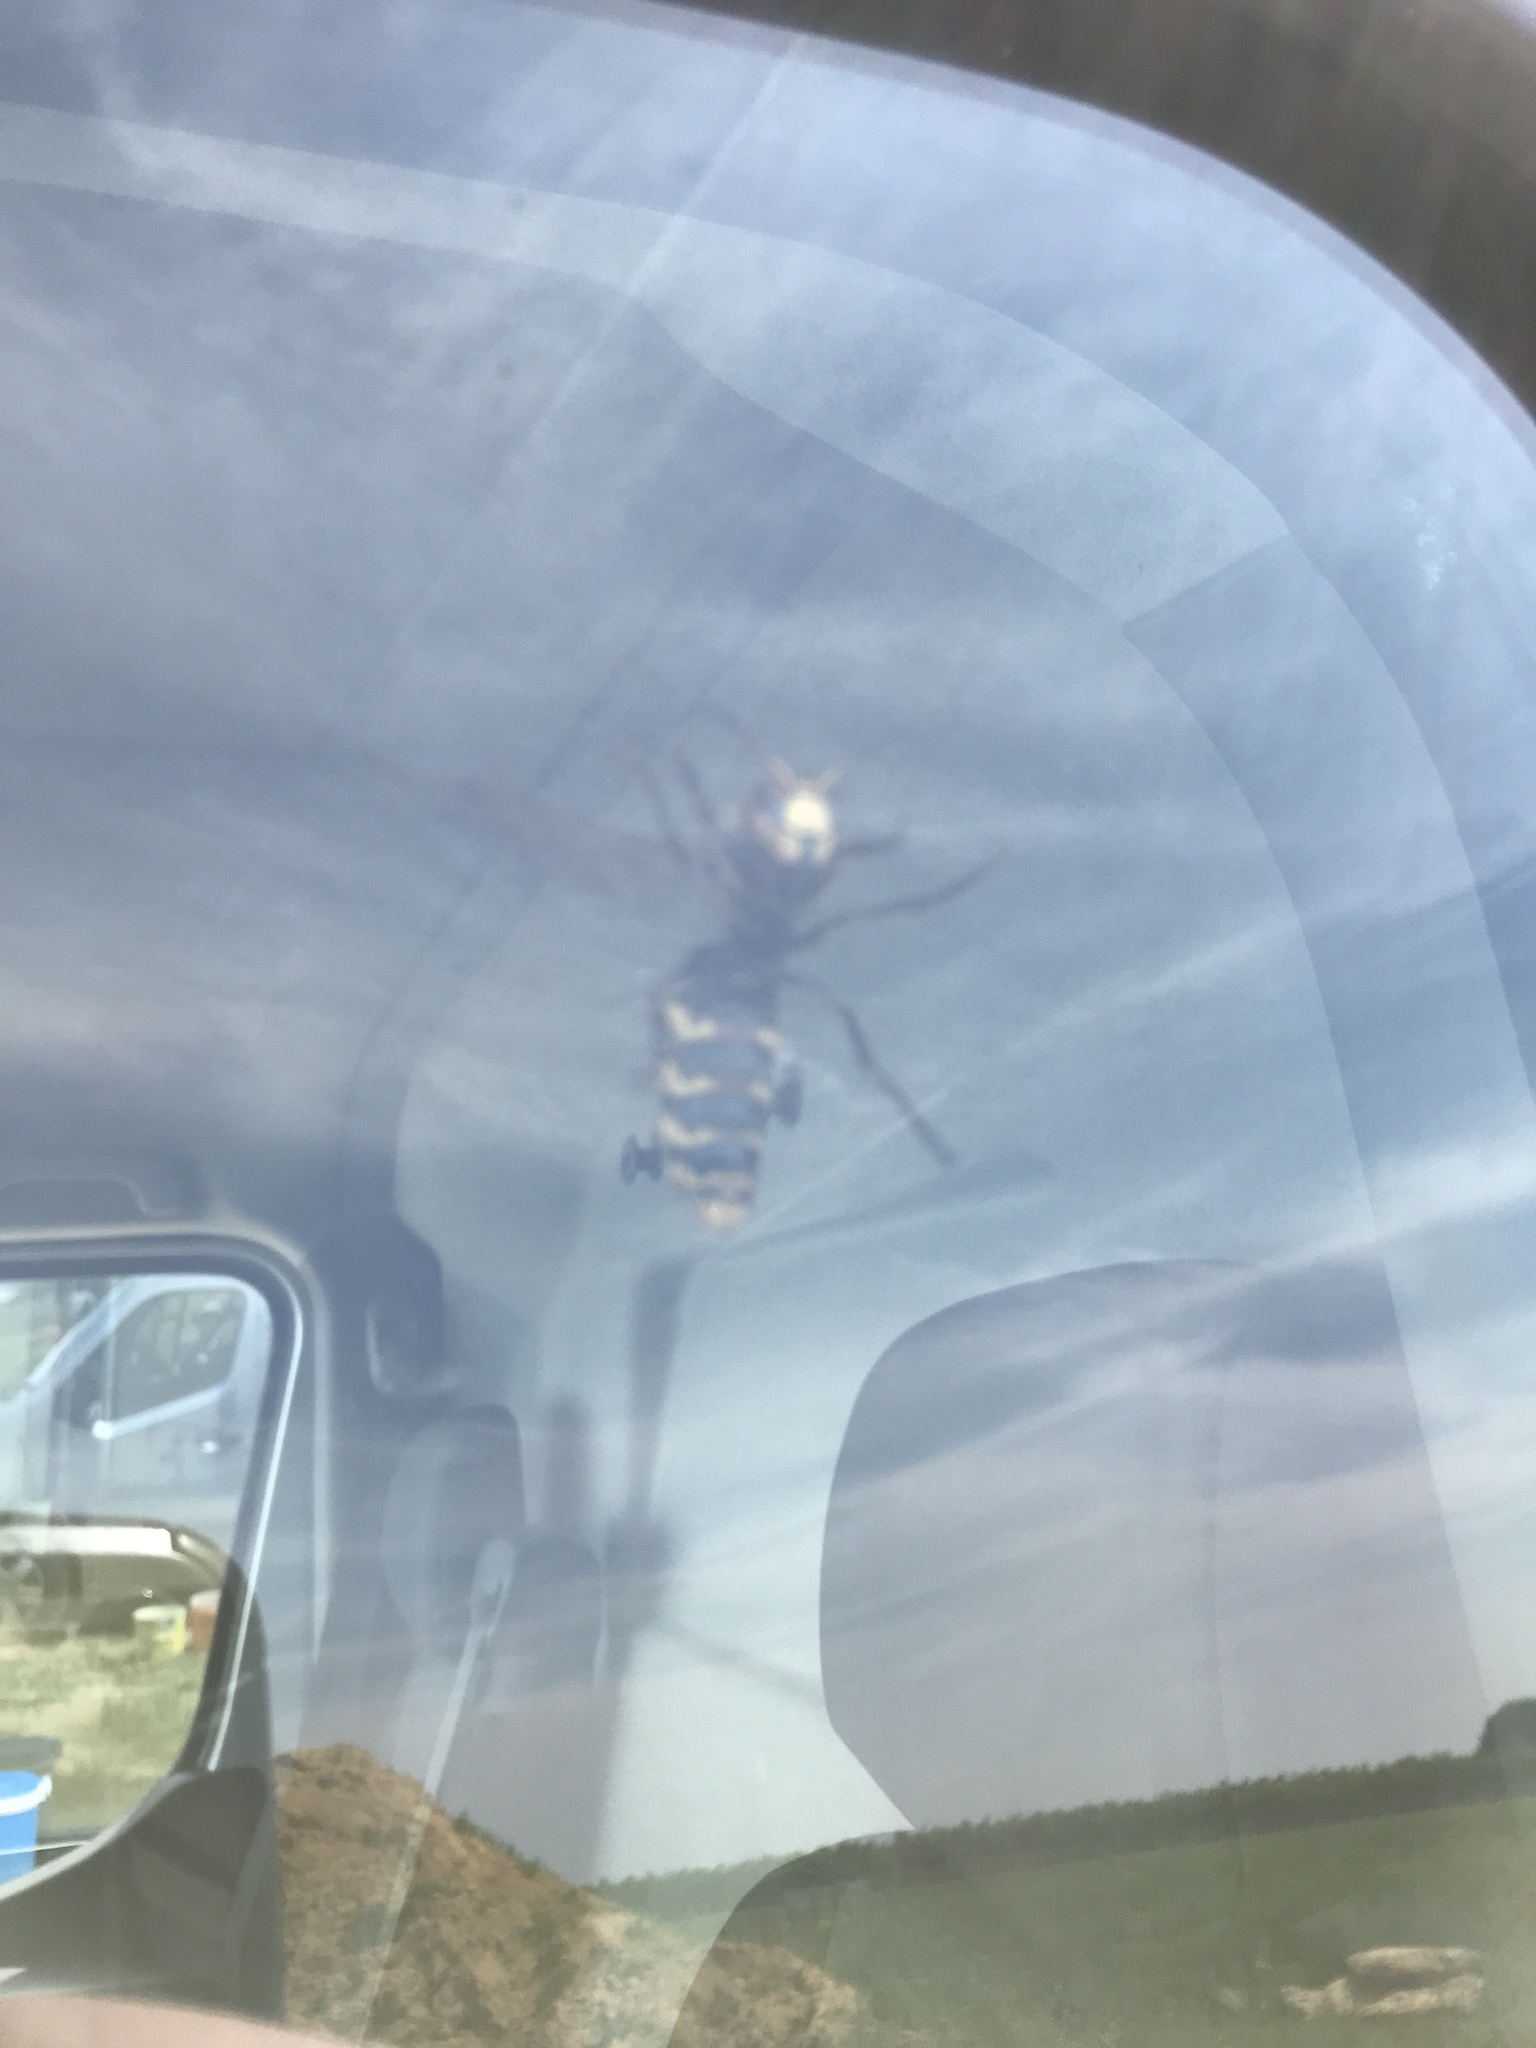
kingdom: Animalia
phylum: Arthropoda
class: Insecta
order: Hymenoptera
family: Vespidae
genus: Vespa
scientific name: Vespa crabro
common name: Hornet
